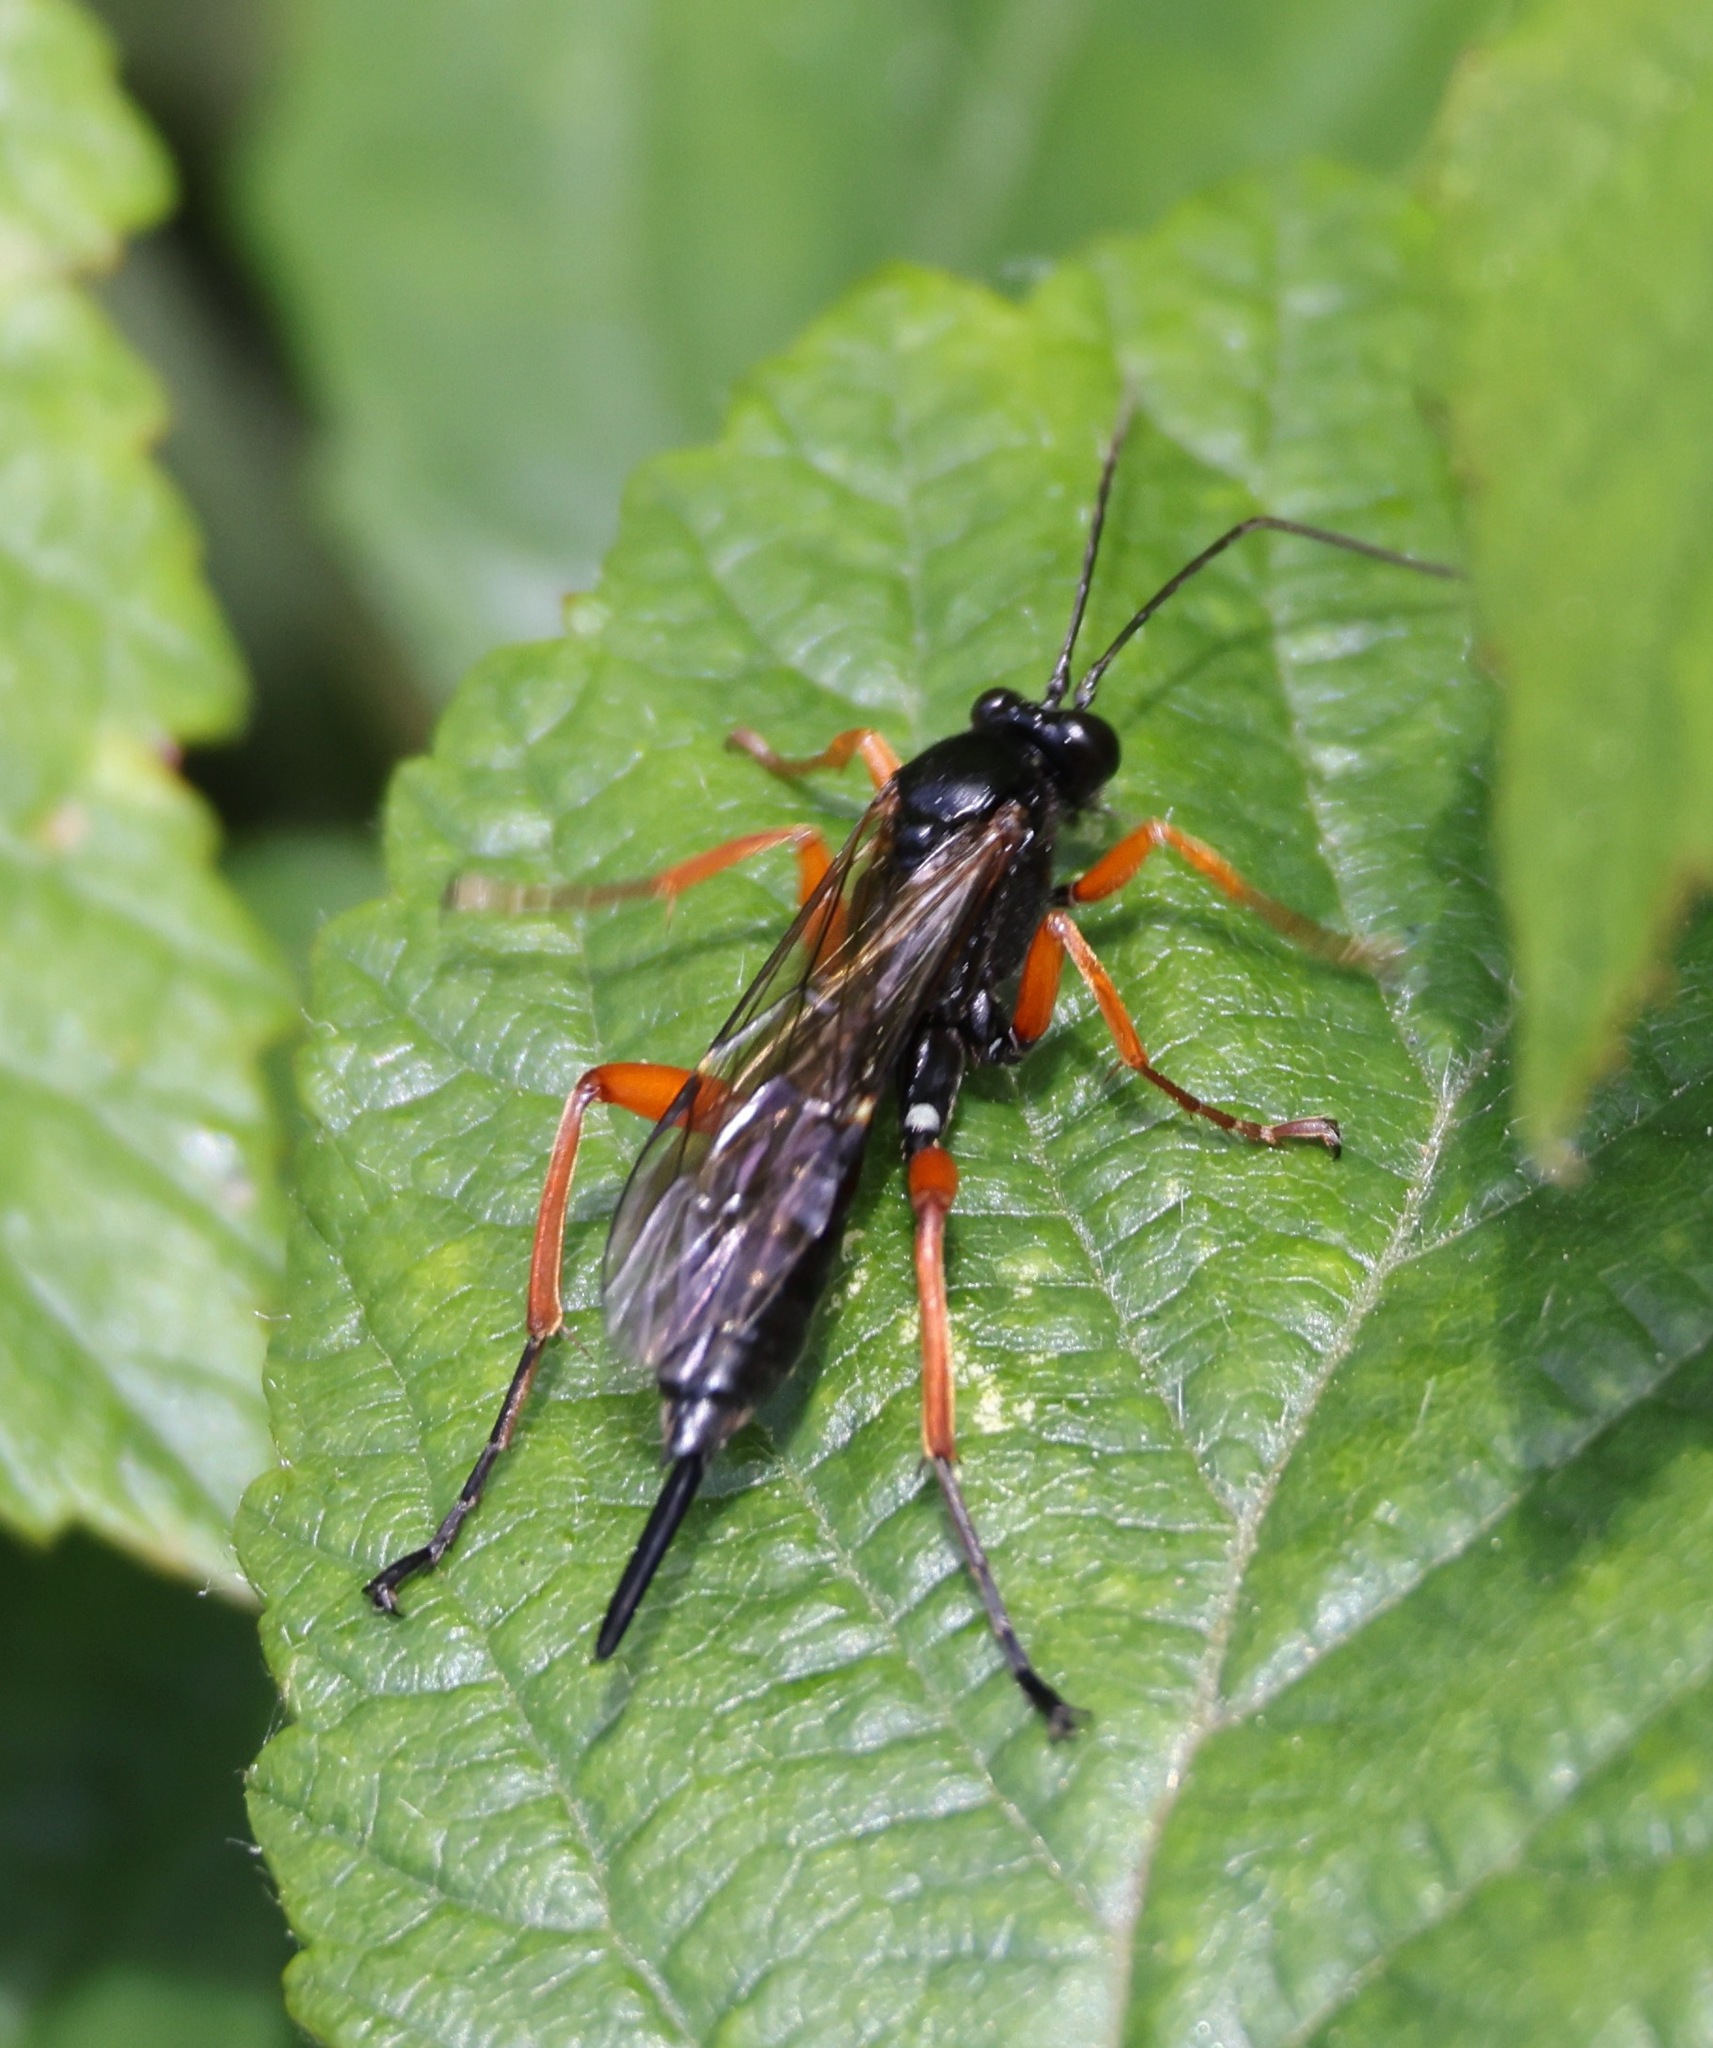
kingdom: Animalia
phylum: Arthropoda
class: Insecta
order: Hymenoptera
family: Ichneumonidae
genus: Pimpla
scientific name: Pimpla rufipes
